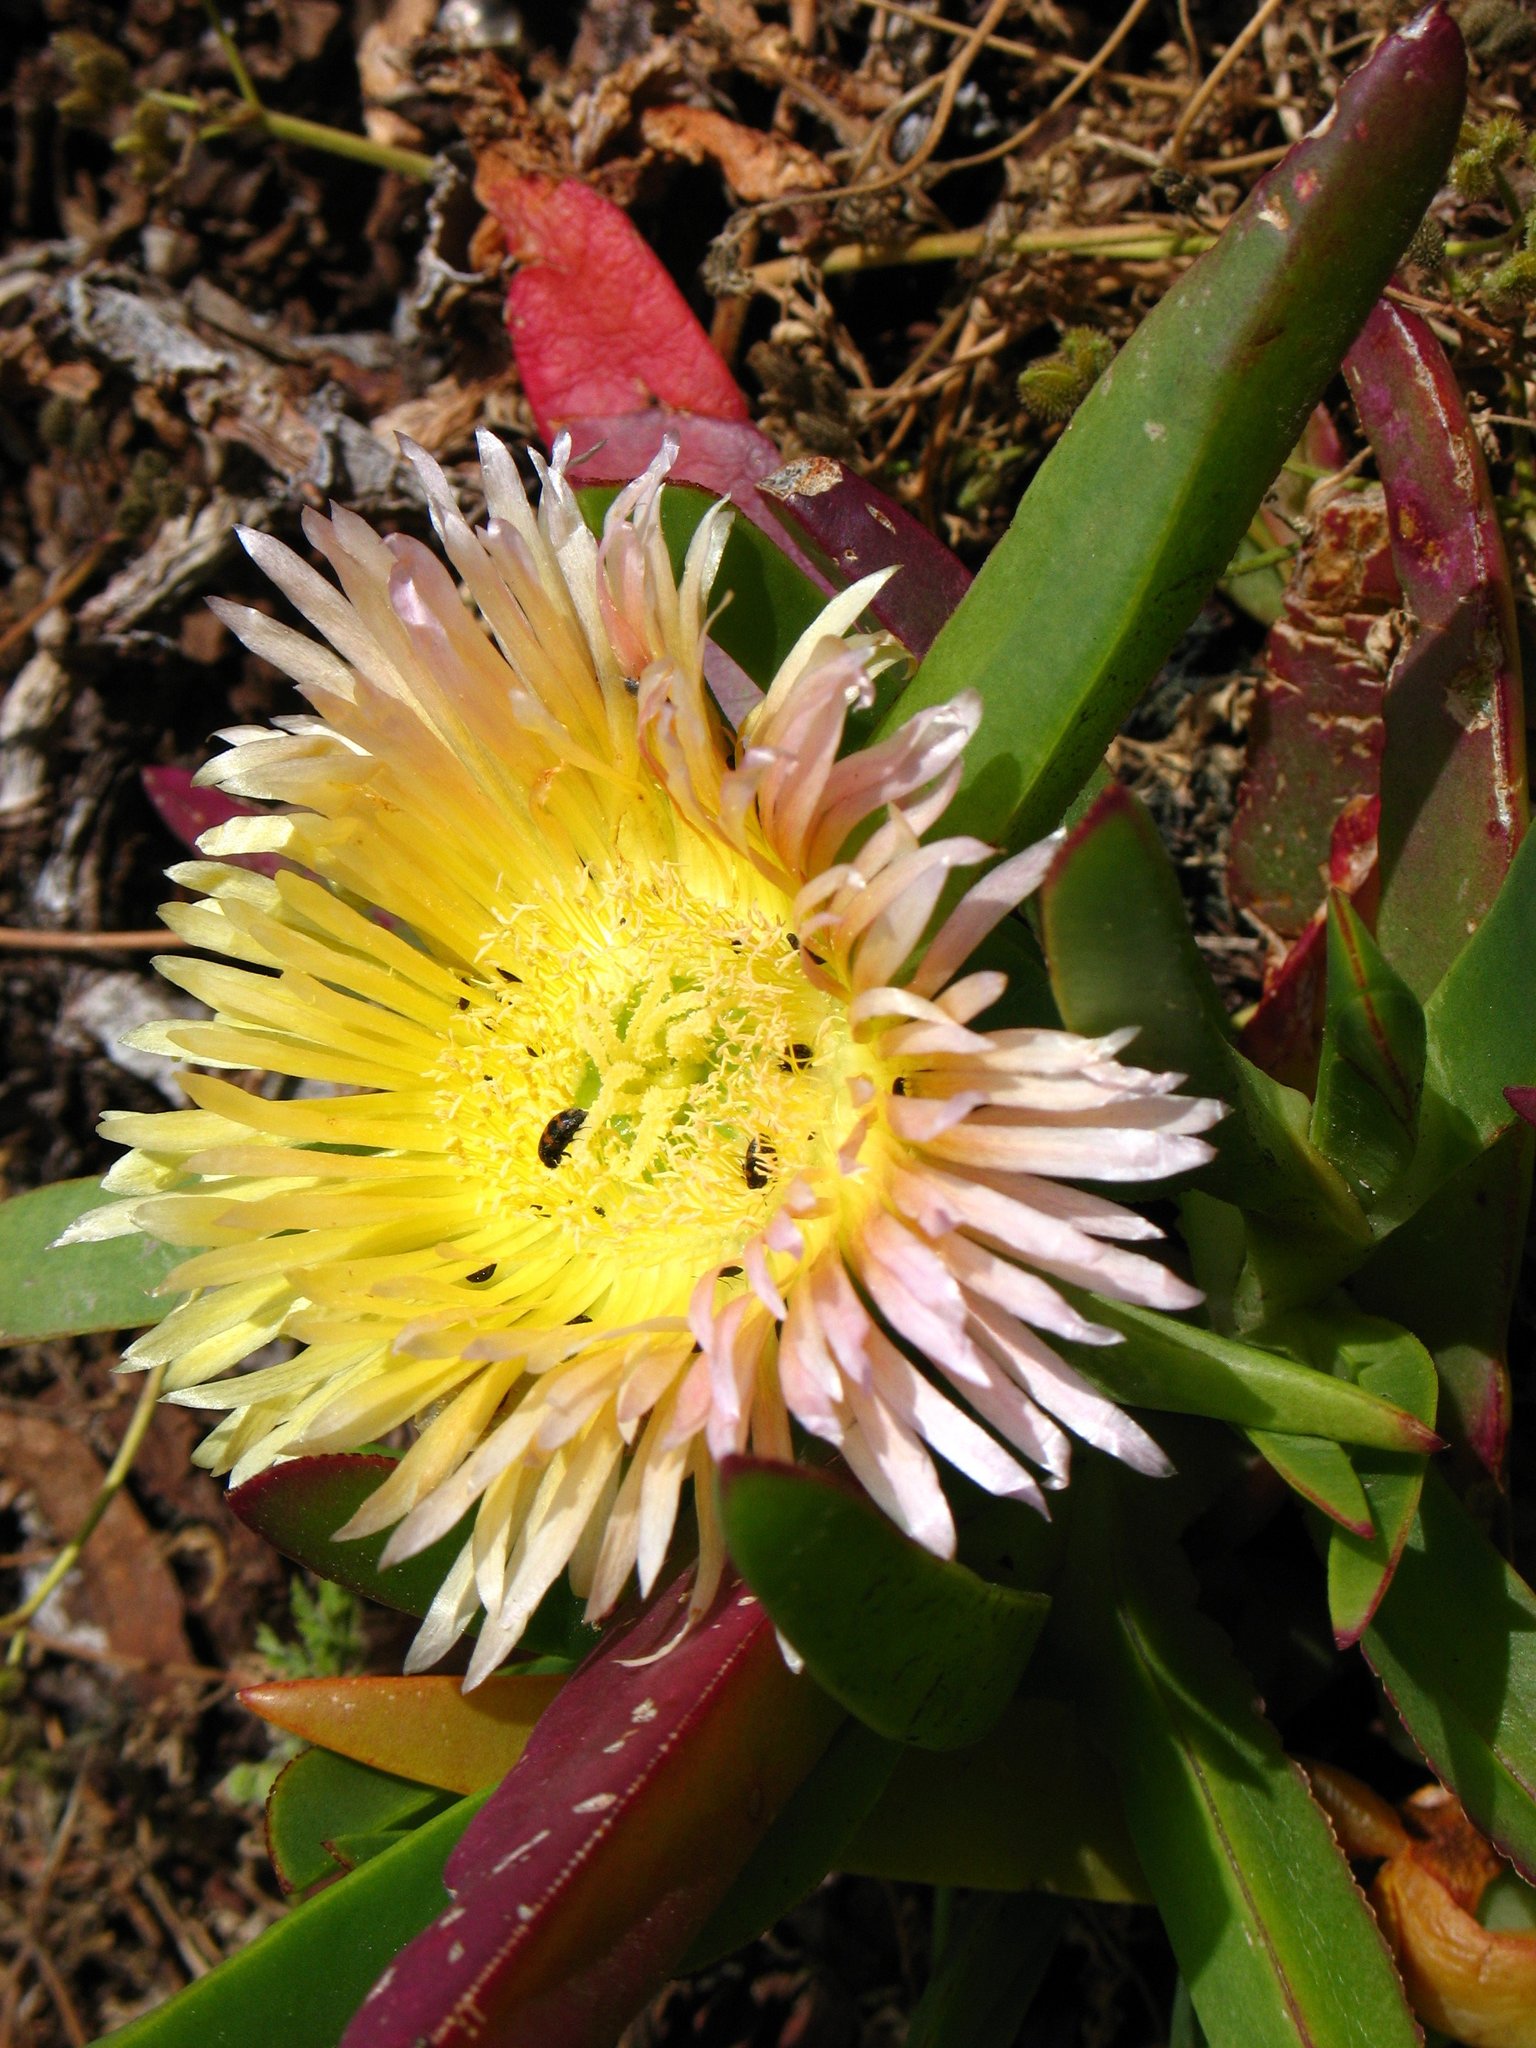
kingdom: Plantae
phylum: Tracheophyta
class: Magnoliopsida
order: Caryophyllales
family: Aizoaceae
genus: Carpobrotus
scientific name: Carpobrotus edulis
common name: Hottentot-fig
